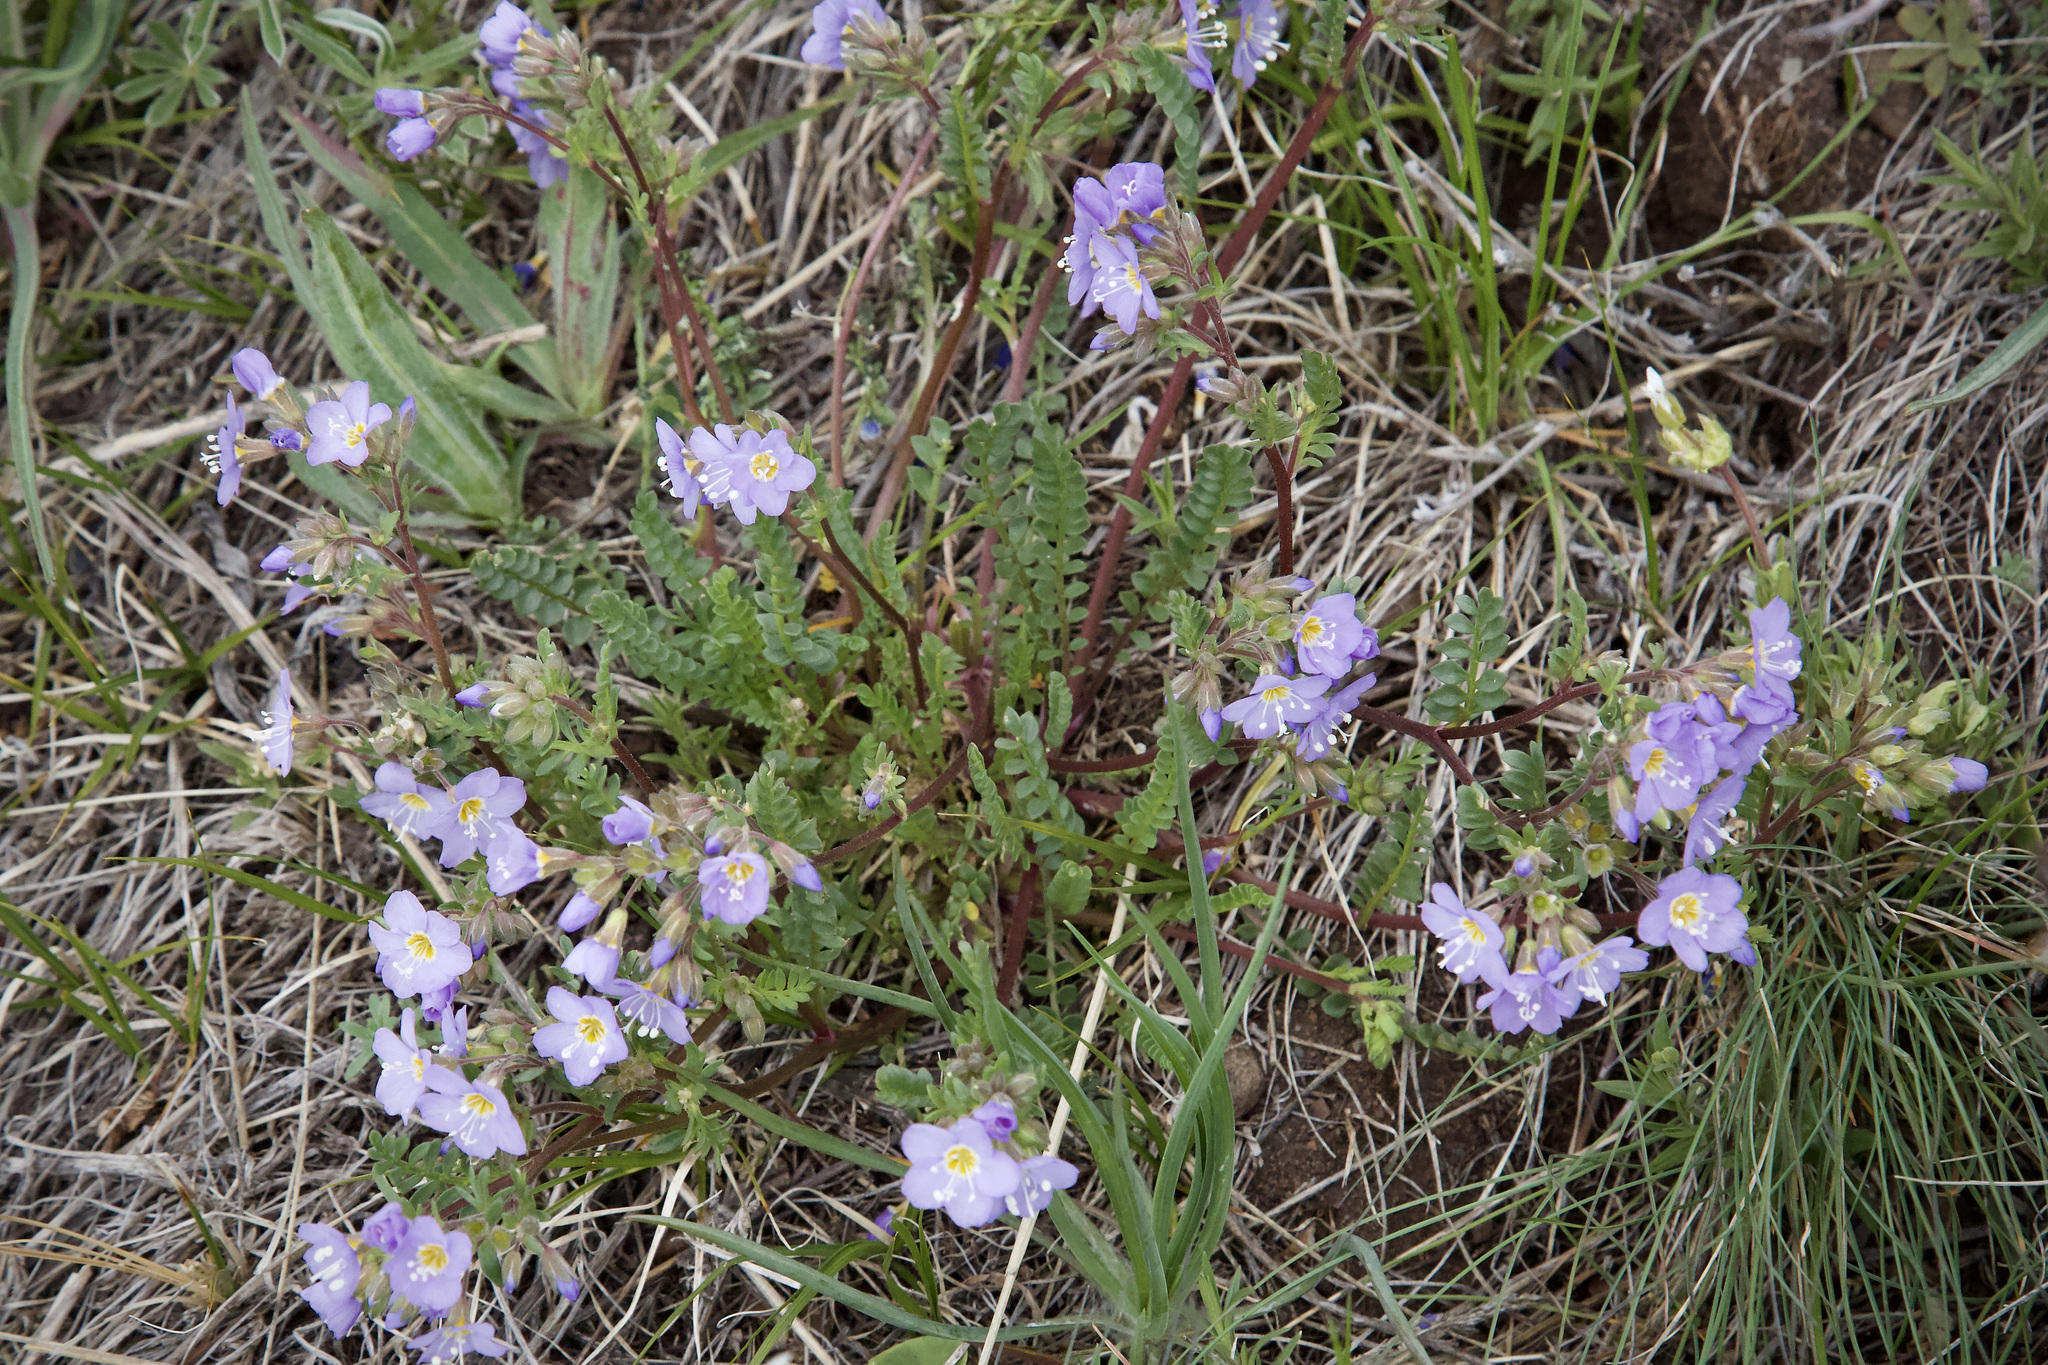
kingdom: Plantae
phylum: Tracheophyta
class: Magnoliopsida
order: Ericales
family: Polemoniaceae
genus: Polemonium
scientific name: Polemonium pulcherrimum
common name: Short jacob's-ladder
